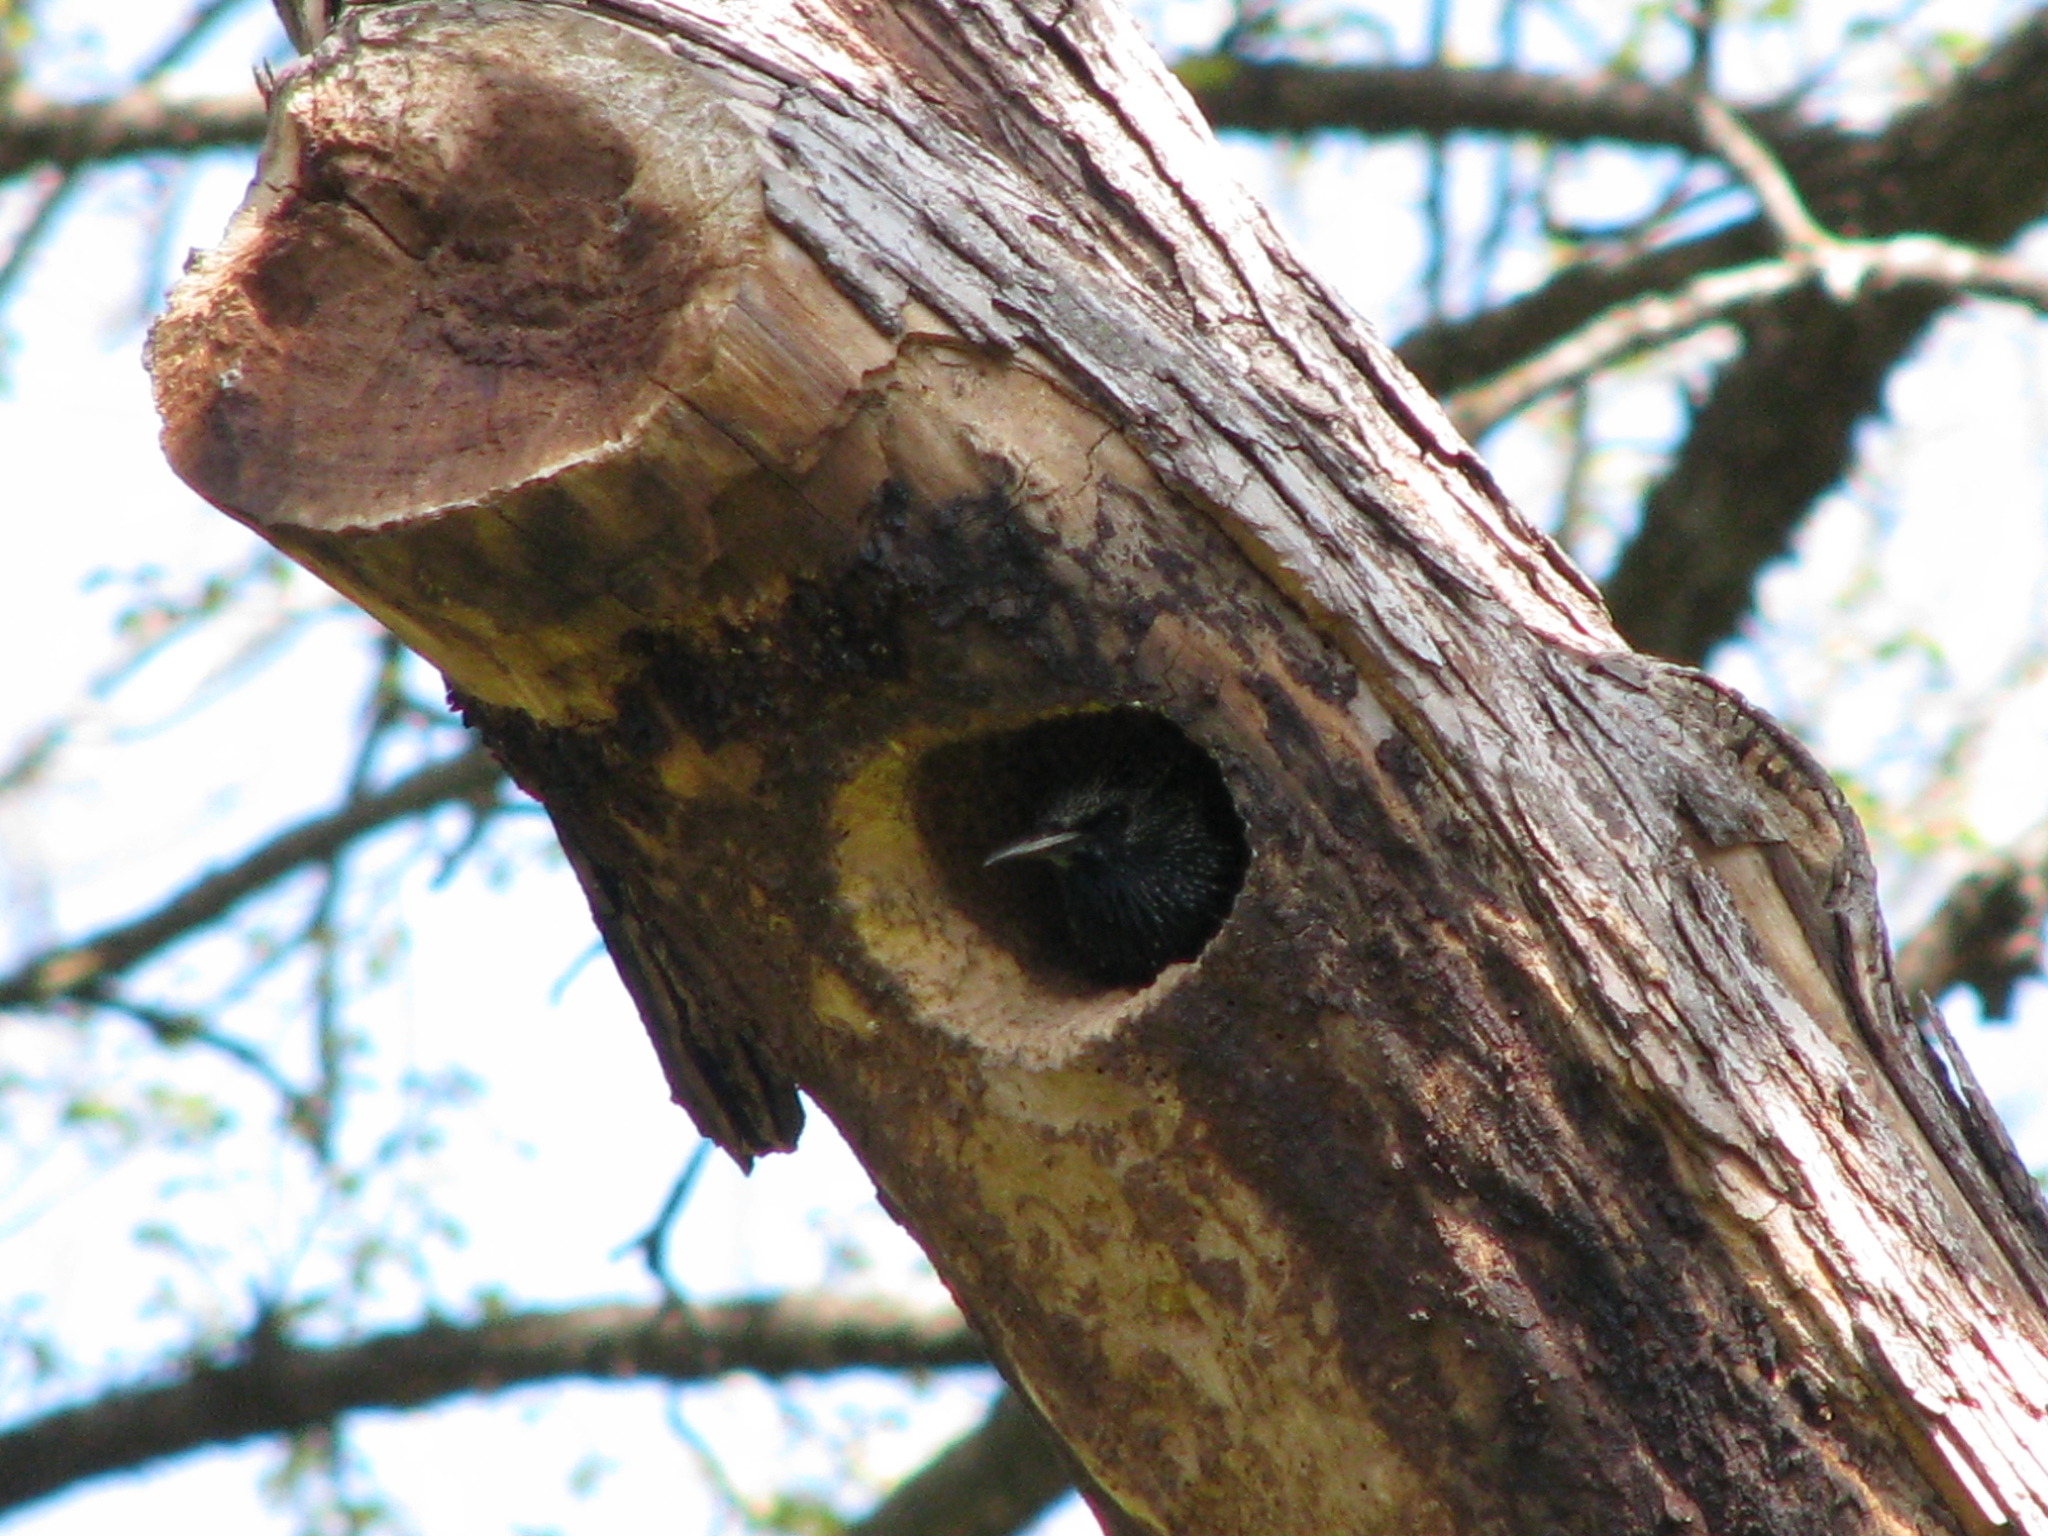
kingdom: Animalia
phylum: Chordata
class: Aves
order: Passeriformes
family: Sturnidae
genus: Sturnus
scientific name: Sturnus vulgaris
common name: Common starling
